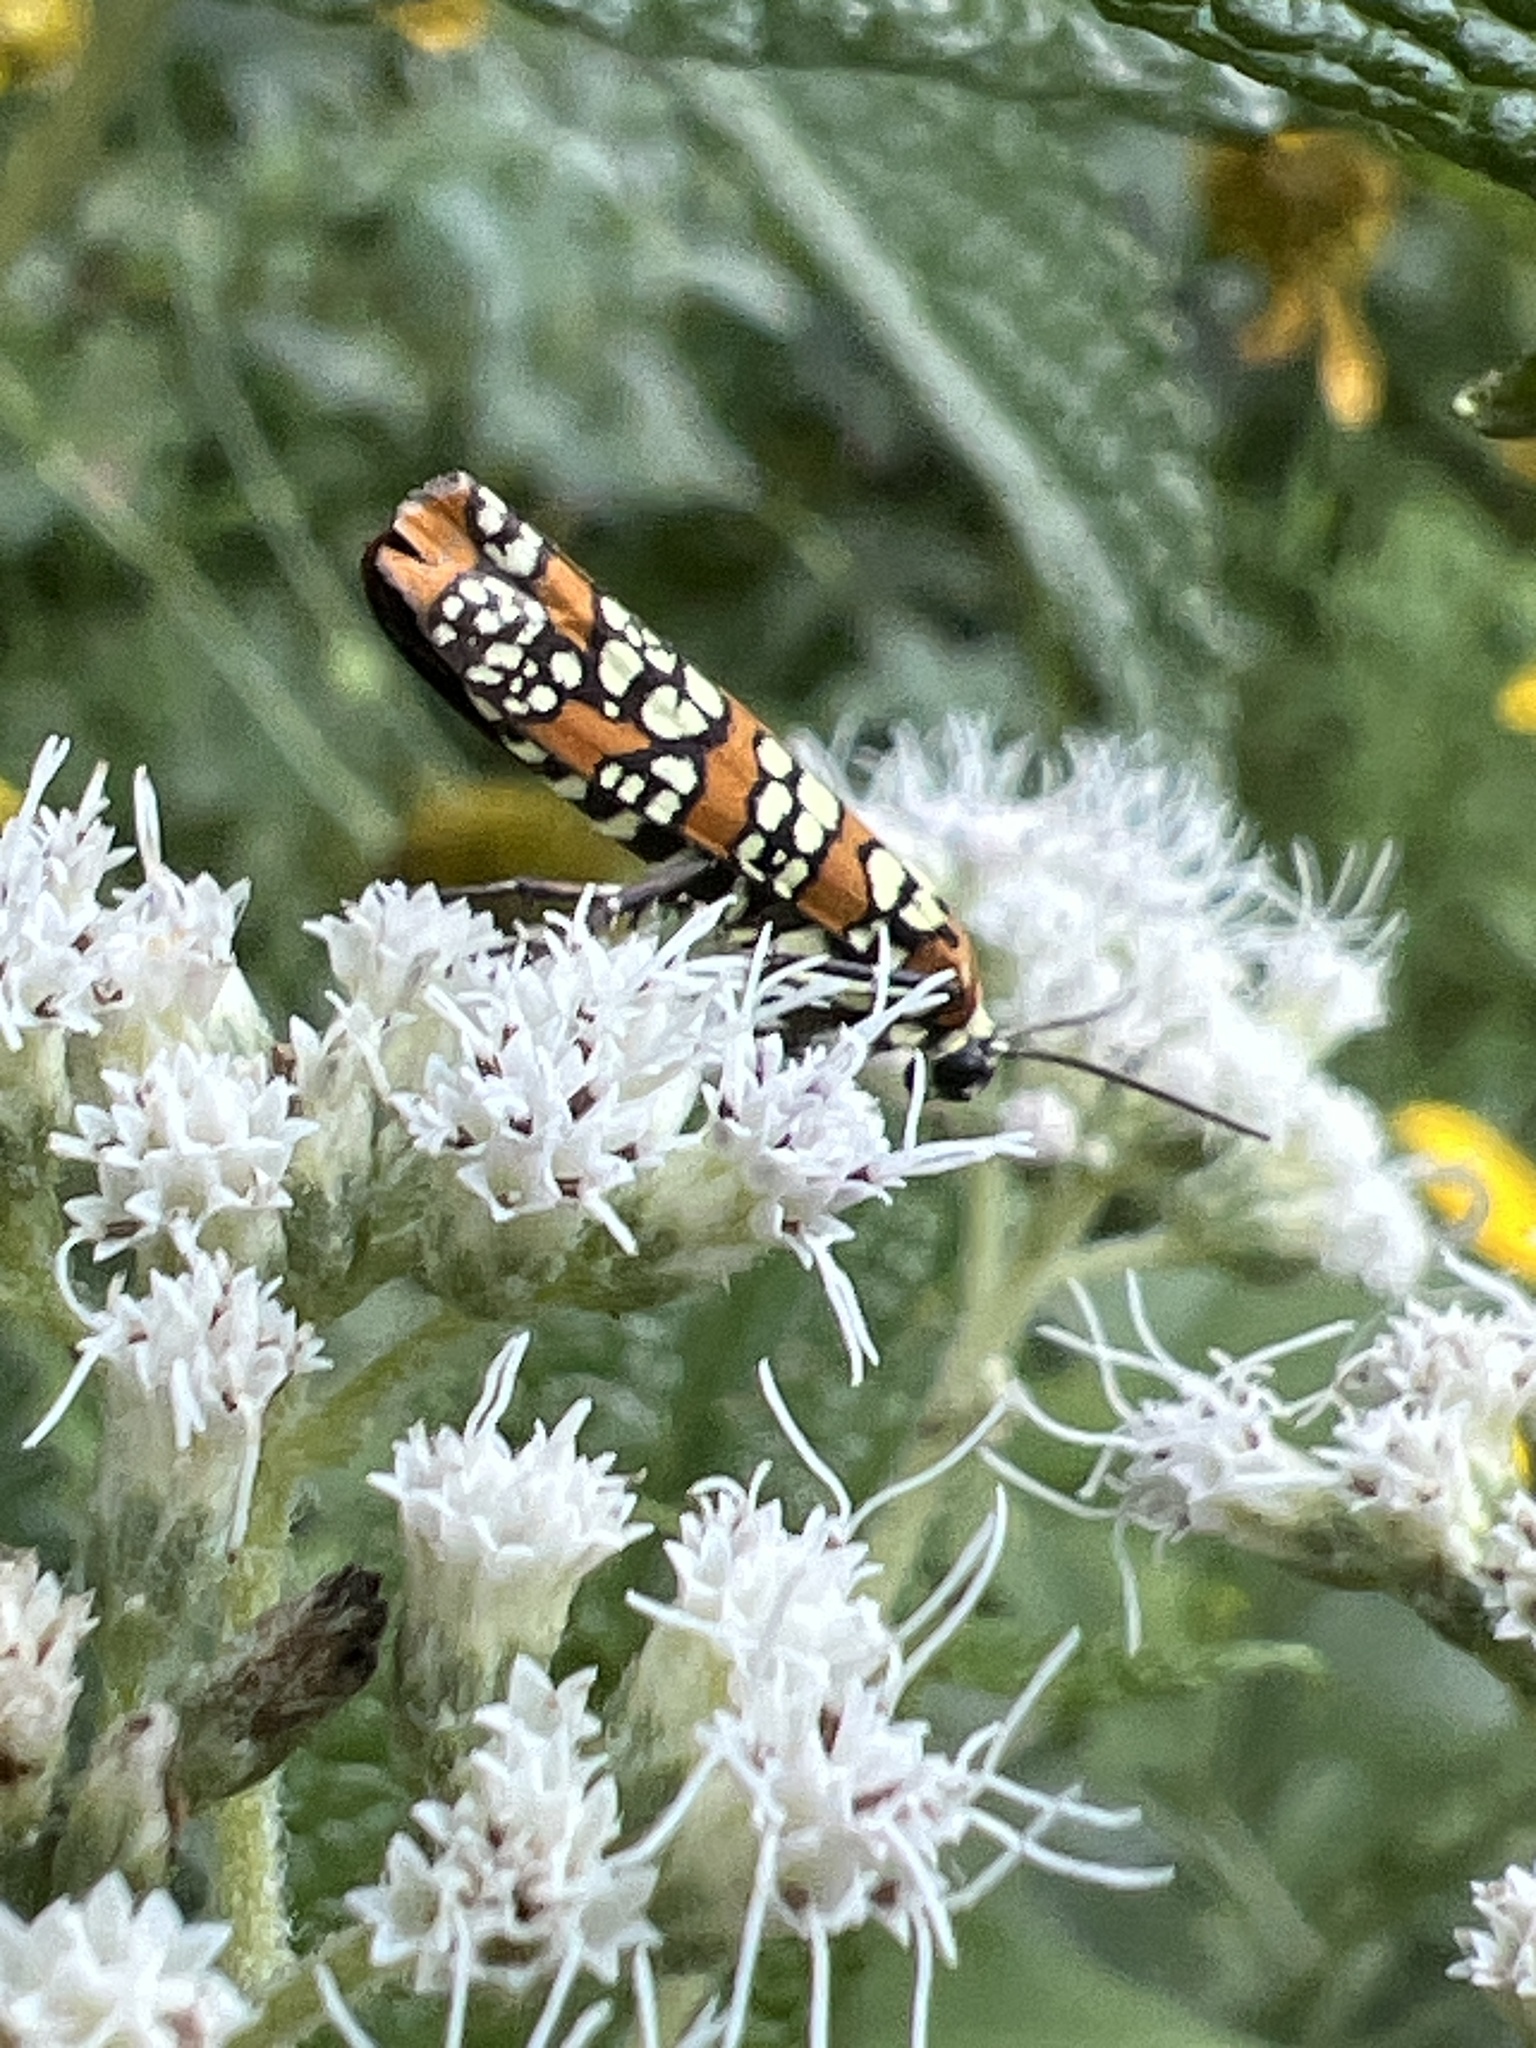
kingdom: Animalia
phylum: Arthropoda
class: Insecta
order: Lepidoptera
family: Attevidae
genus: Atteva
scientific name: Atteva punctella
